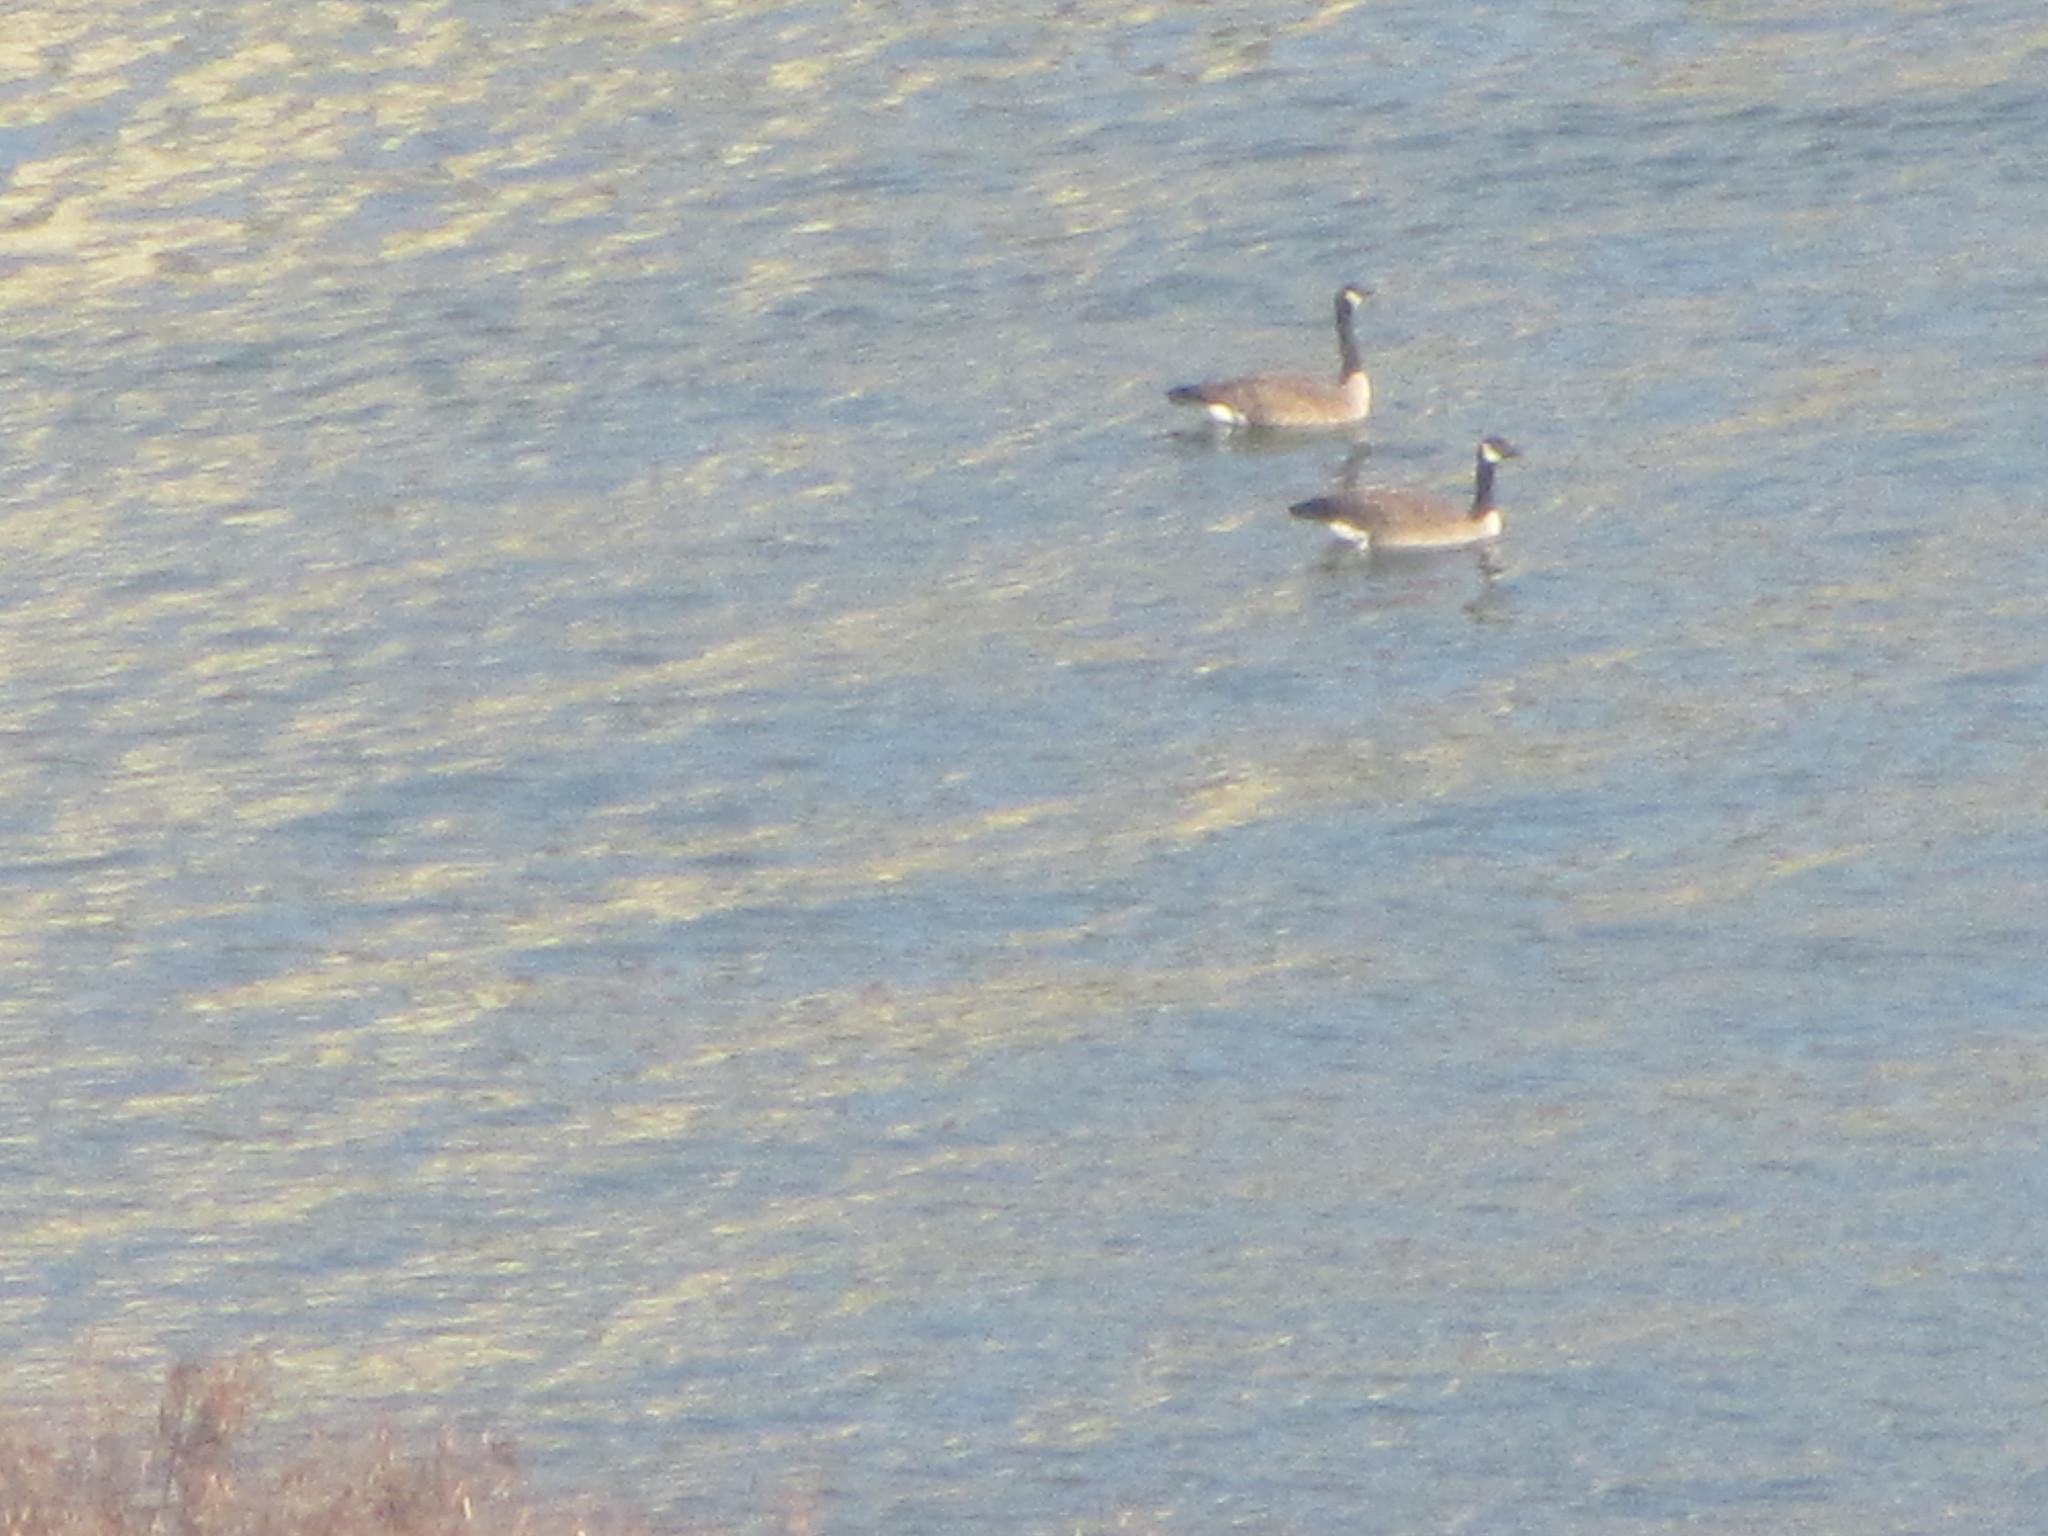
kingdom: Animalia
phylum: Chordata
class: Aves
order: Anseriformes
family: Anatidae
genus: Branta
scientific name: Branta canadensis
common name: Canada goose
